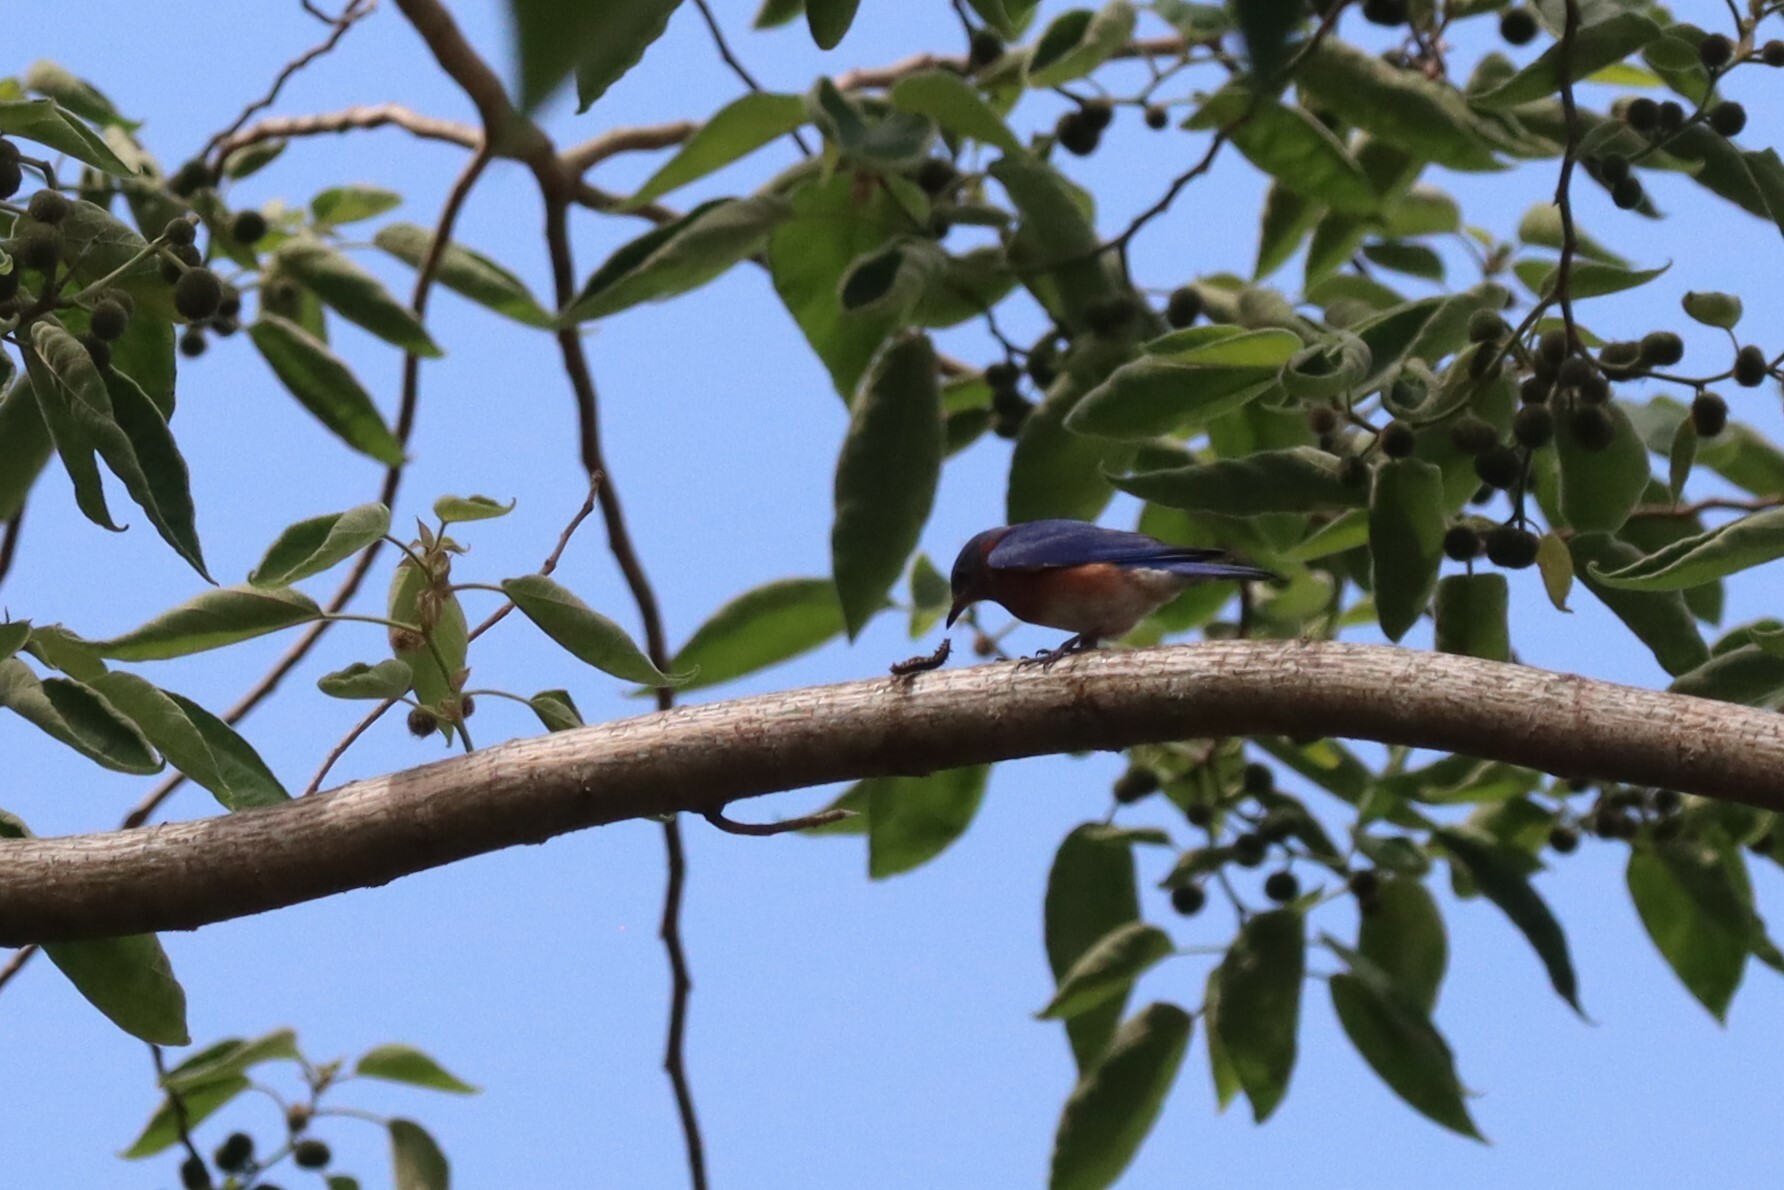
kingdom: Animalia
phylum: Chordata
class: Aves
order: Passeriformes
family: Turdidae
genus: Sialia
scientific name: Sialia sialis
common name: Eastern bluebird
